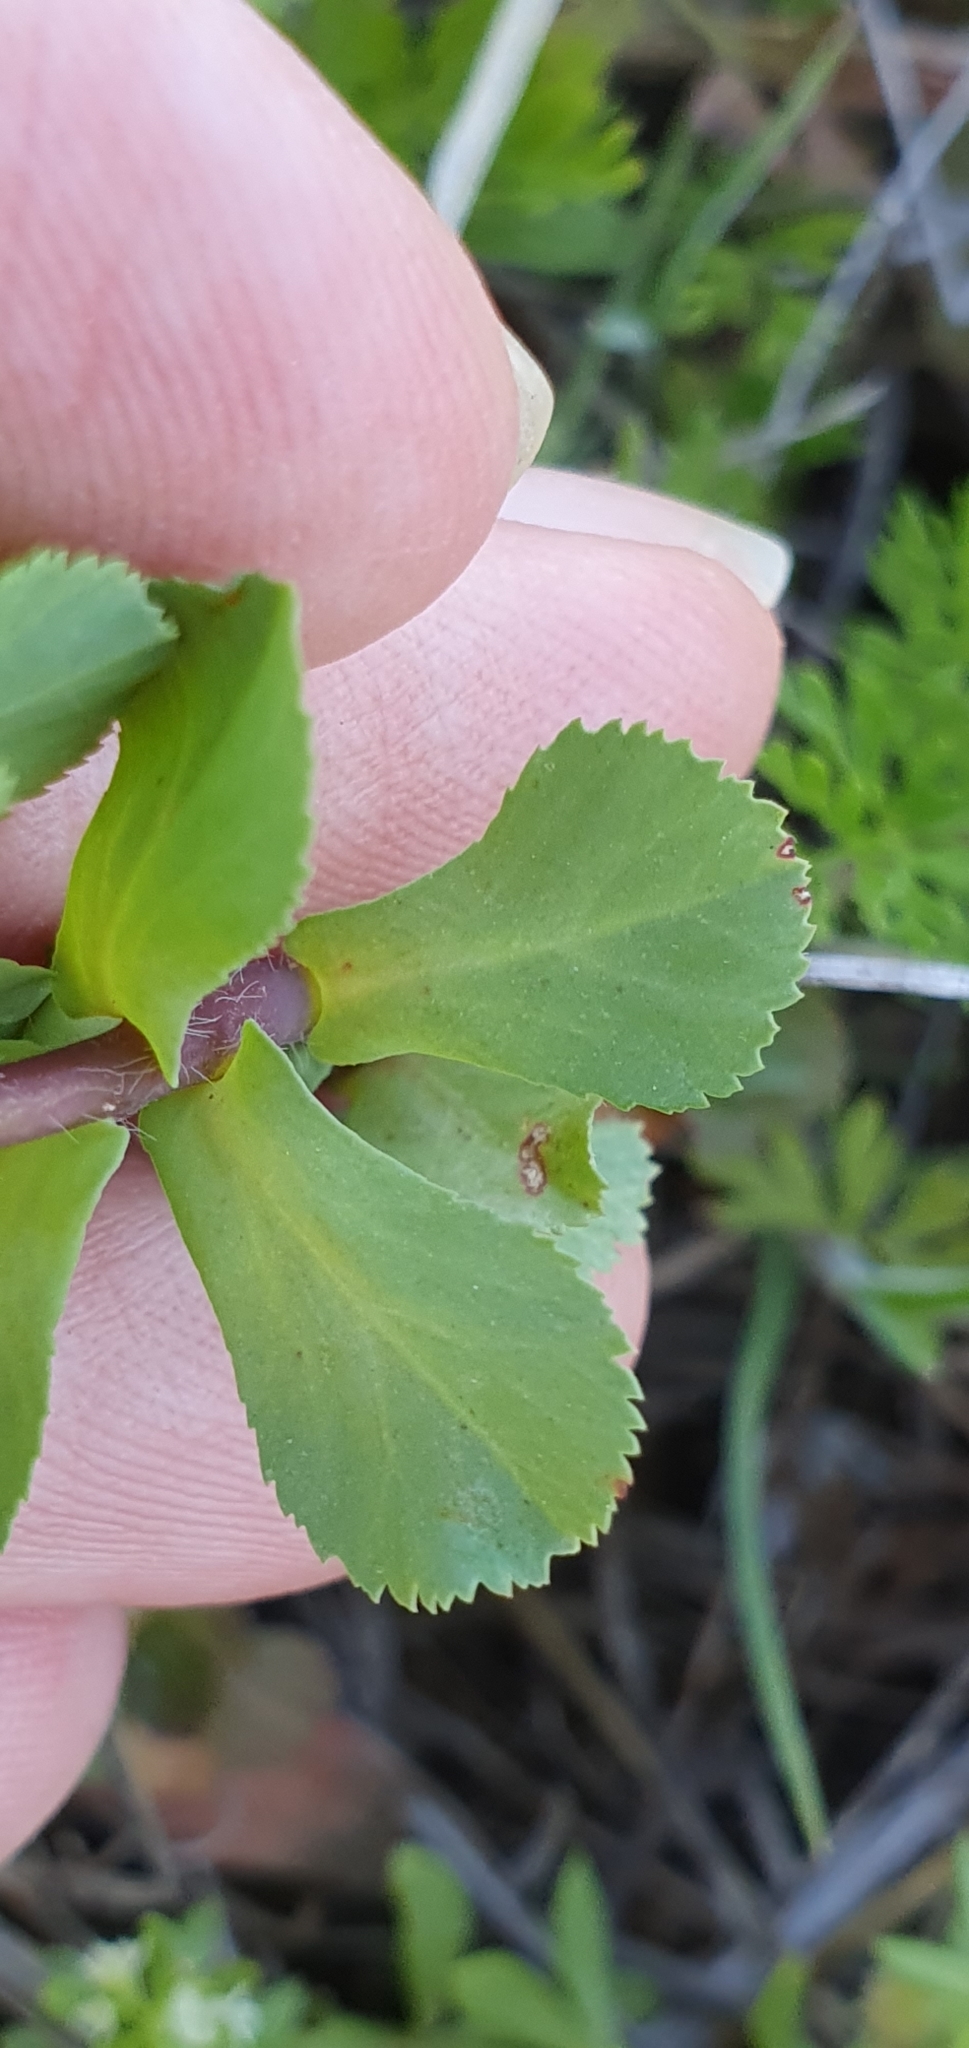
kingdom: Plantae
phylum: Tracheophyta
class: Magnoliopsida
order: Malpighiales
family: Euphorbiaceae
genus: Euphorbia
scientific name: Euphorbia helioscopia
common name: Sun spurge
